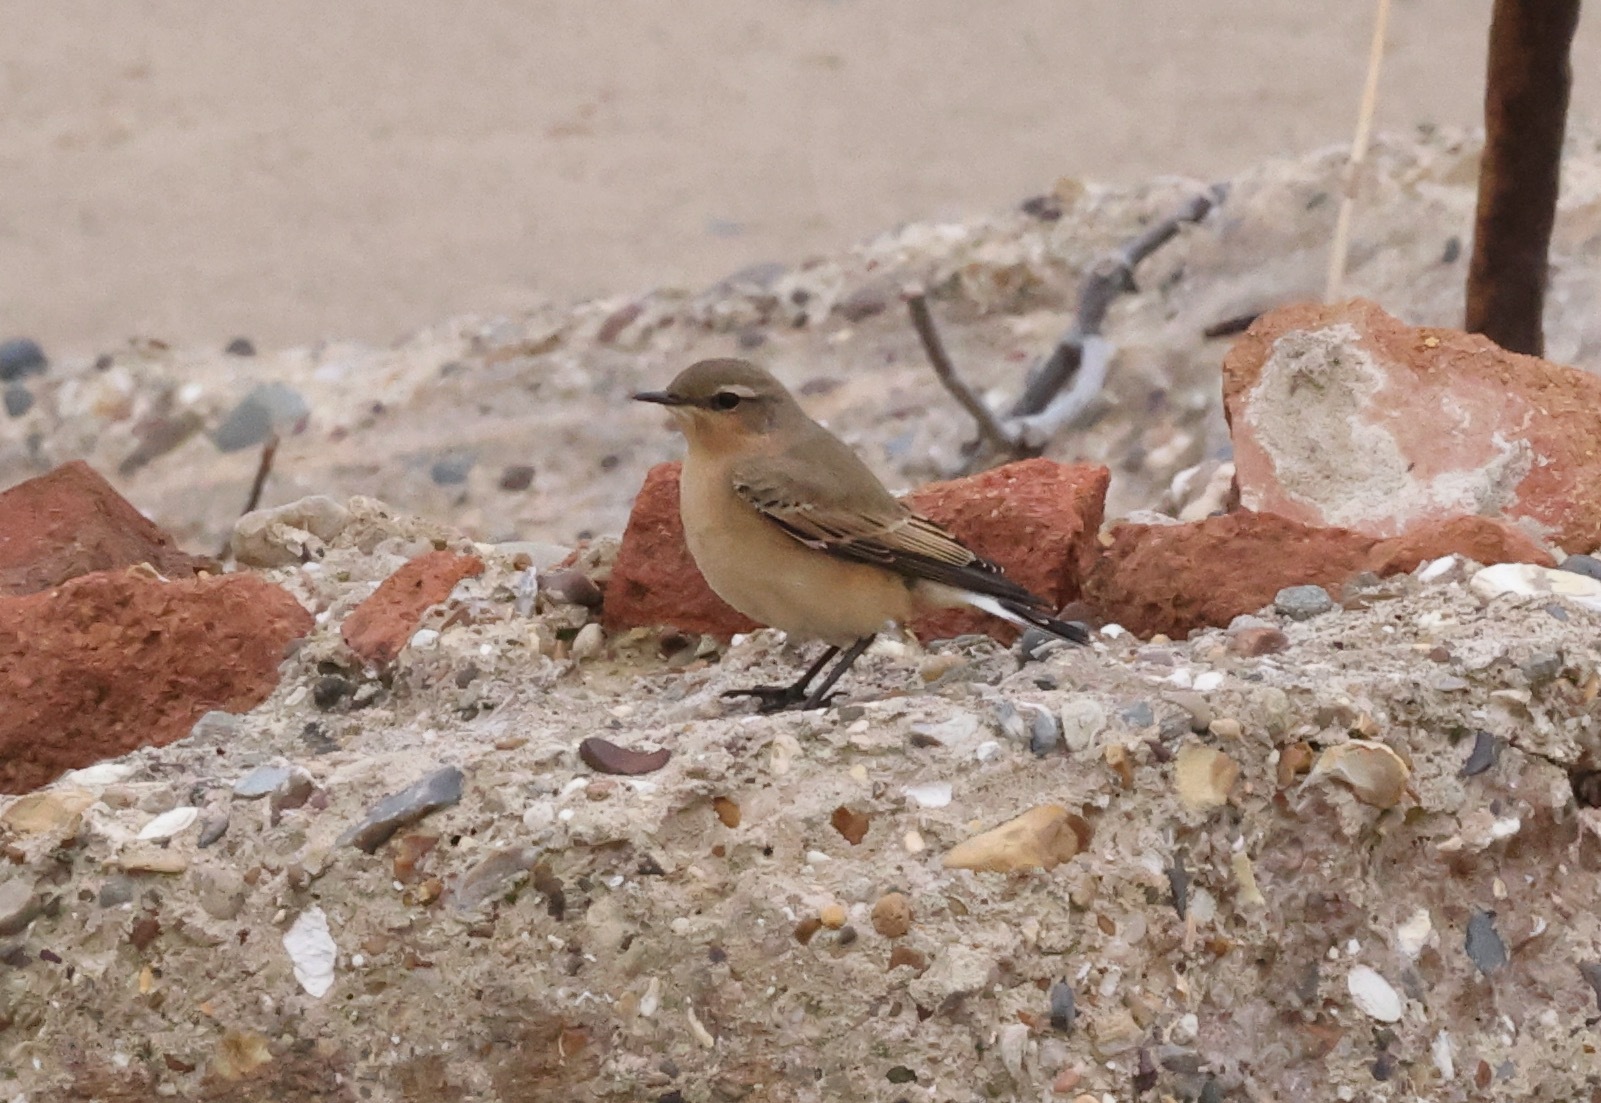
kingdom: Animalia
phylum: Chordata
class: Aves
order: Passeriformes
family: Muscicapidae
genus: Oenanthe
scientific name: Oenanthe oenanthe
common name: Northern wheatear
